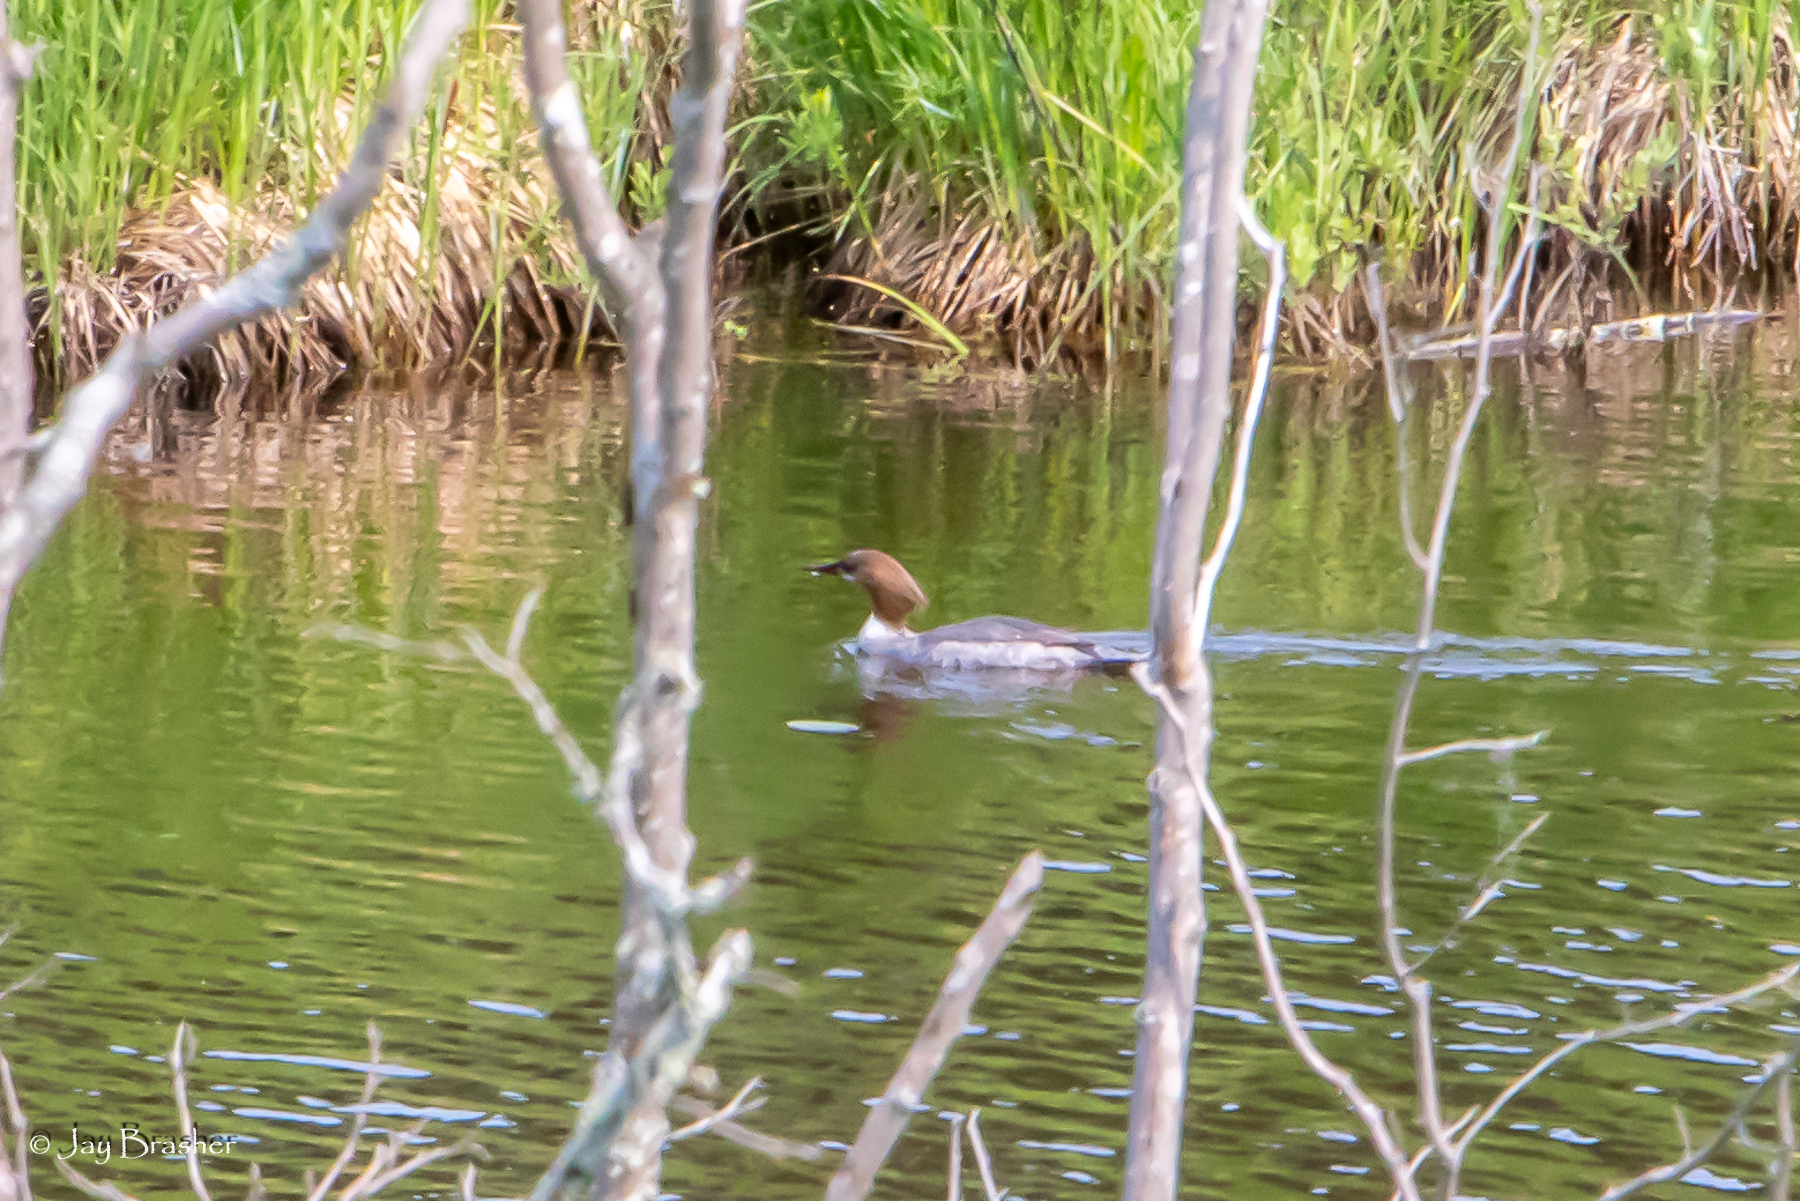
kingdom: Animalia
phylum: Chordata
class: Aves
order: Anseriformes
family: Anatidae
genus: Mergus
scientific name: Mergus merganser
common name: Common merganser
